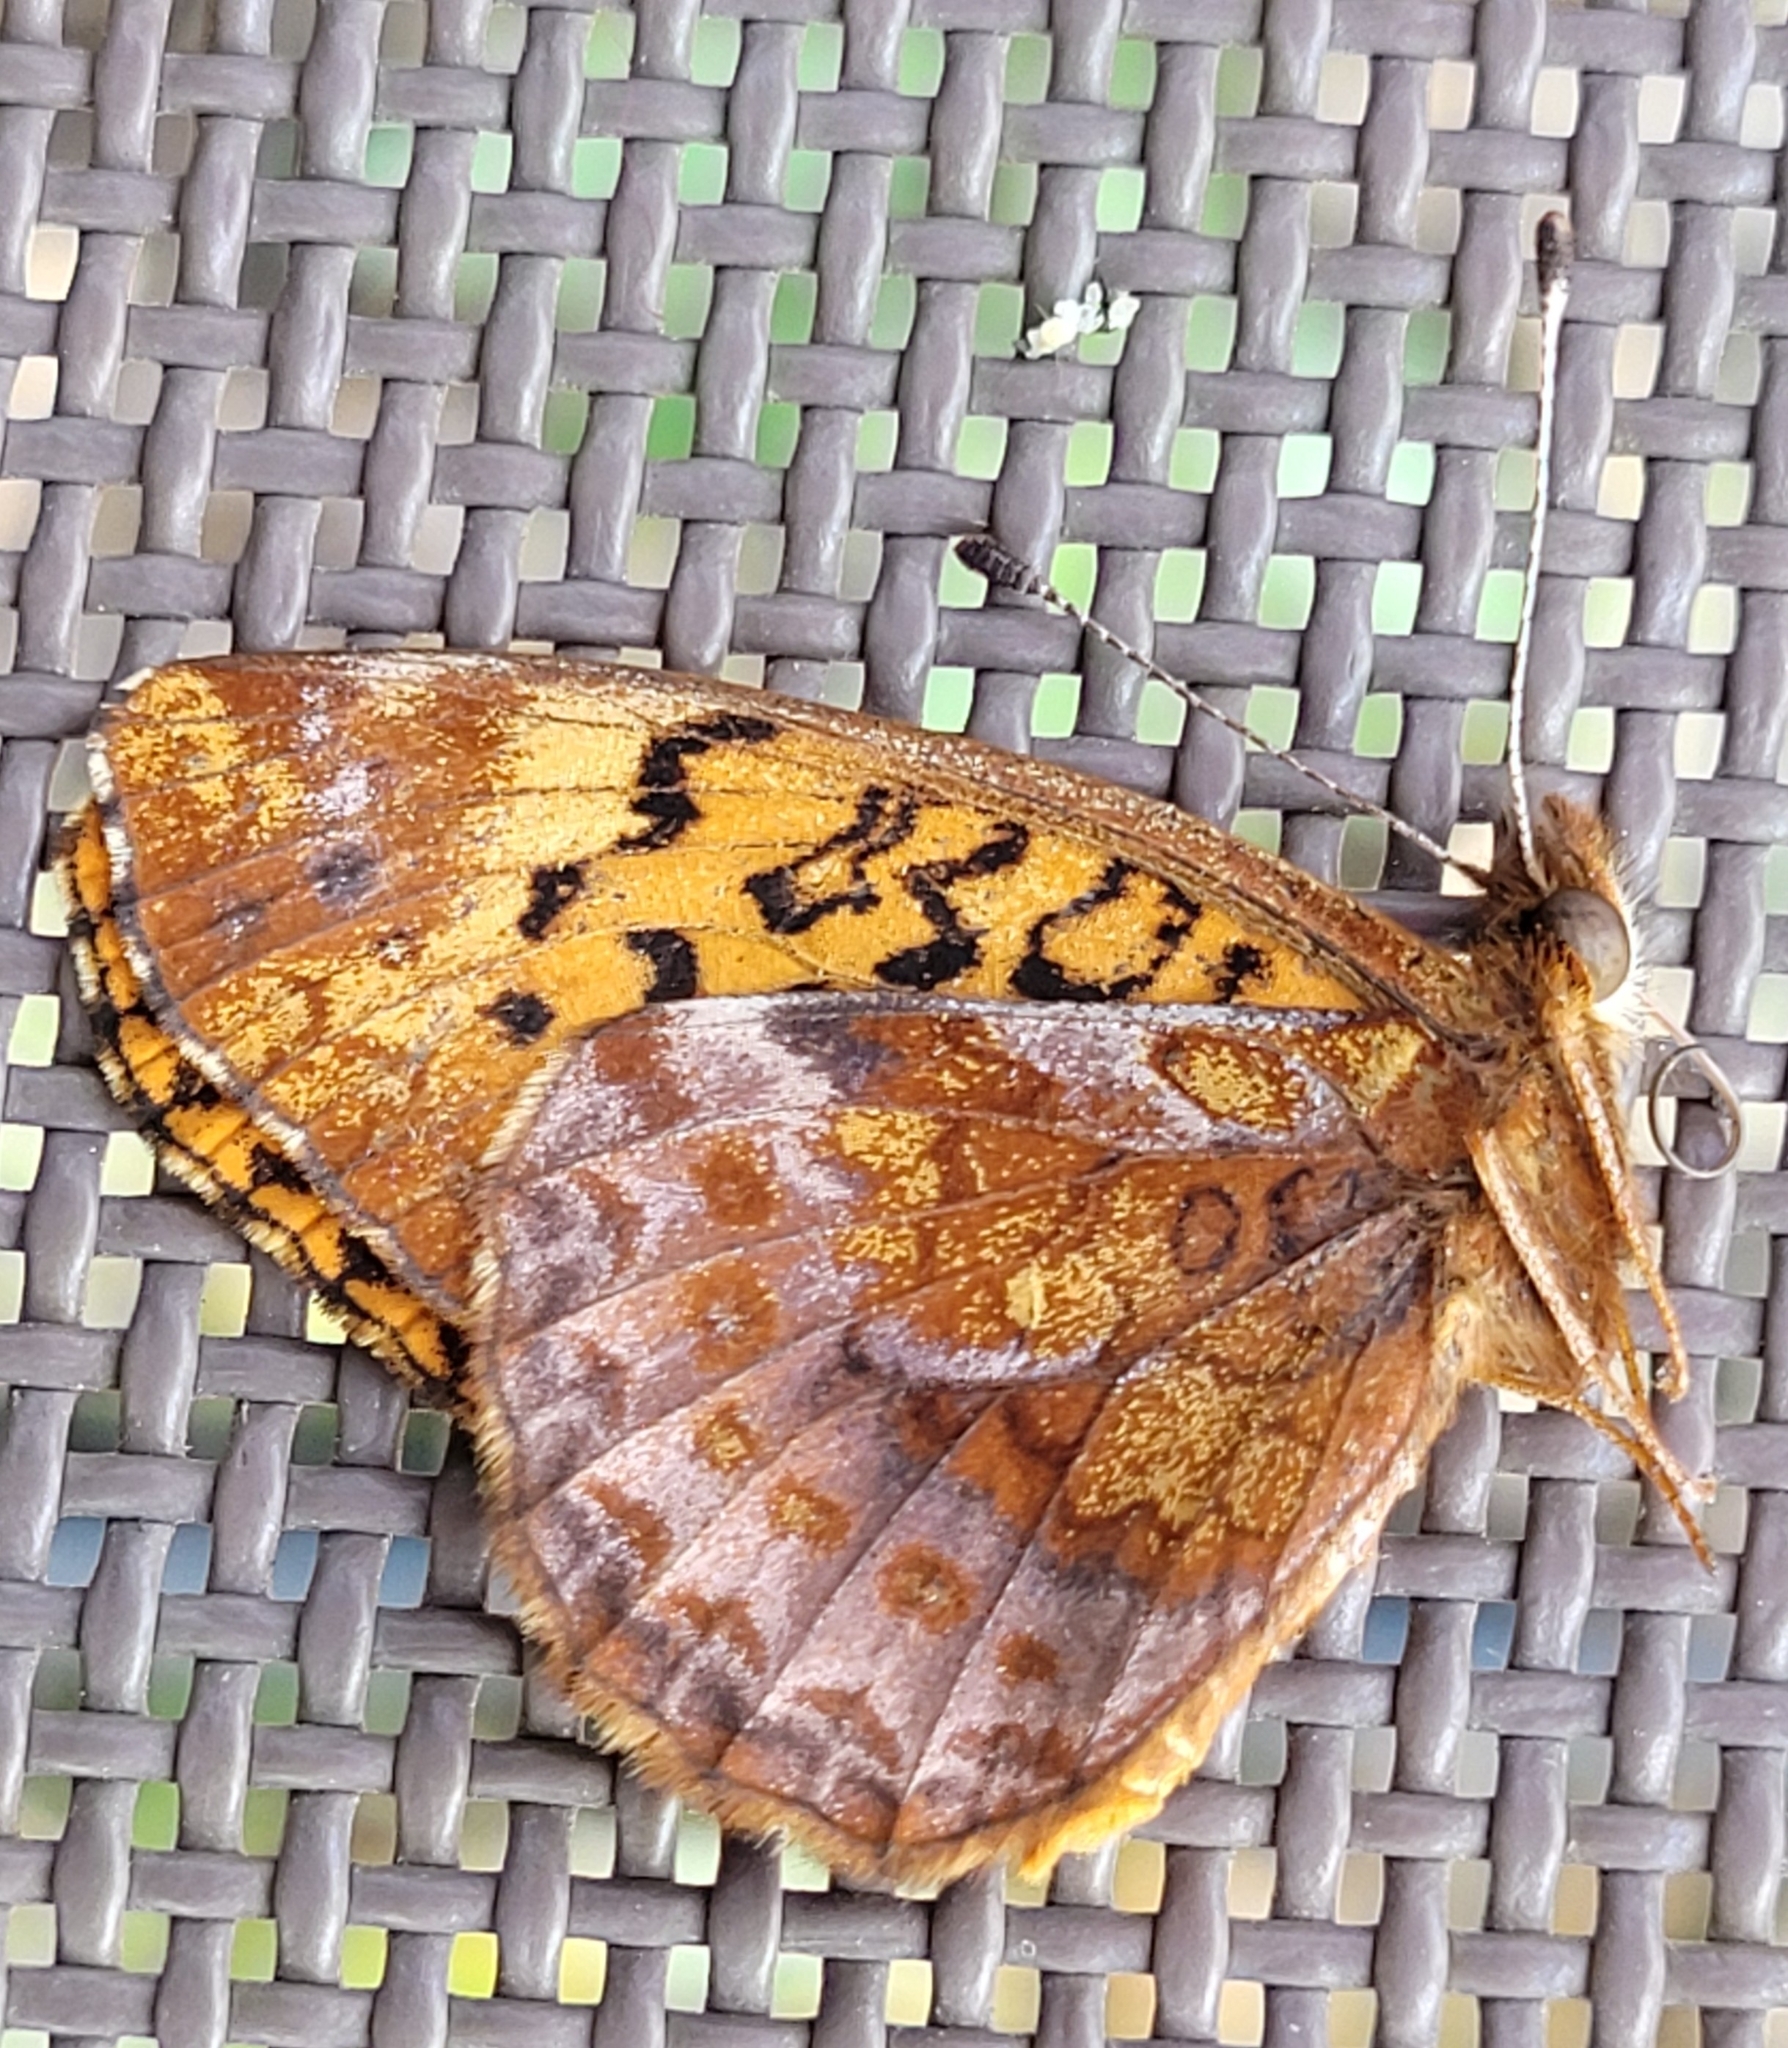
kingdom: Animalia
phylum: Arthropoda
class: Insecta
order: Lepidoptera
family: Nymphalidae
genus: Clossiana
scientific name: Clossiana toddi
